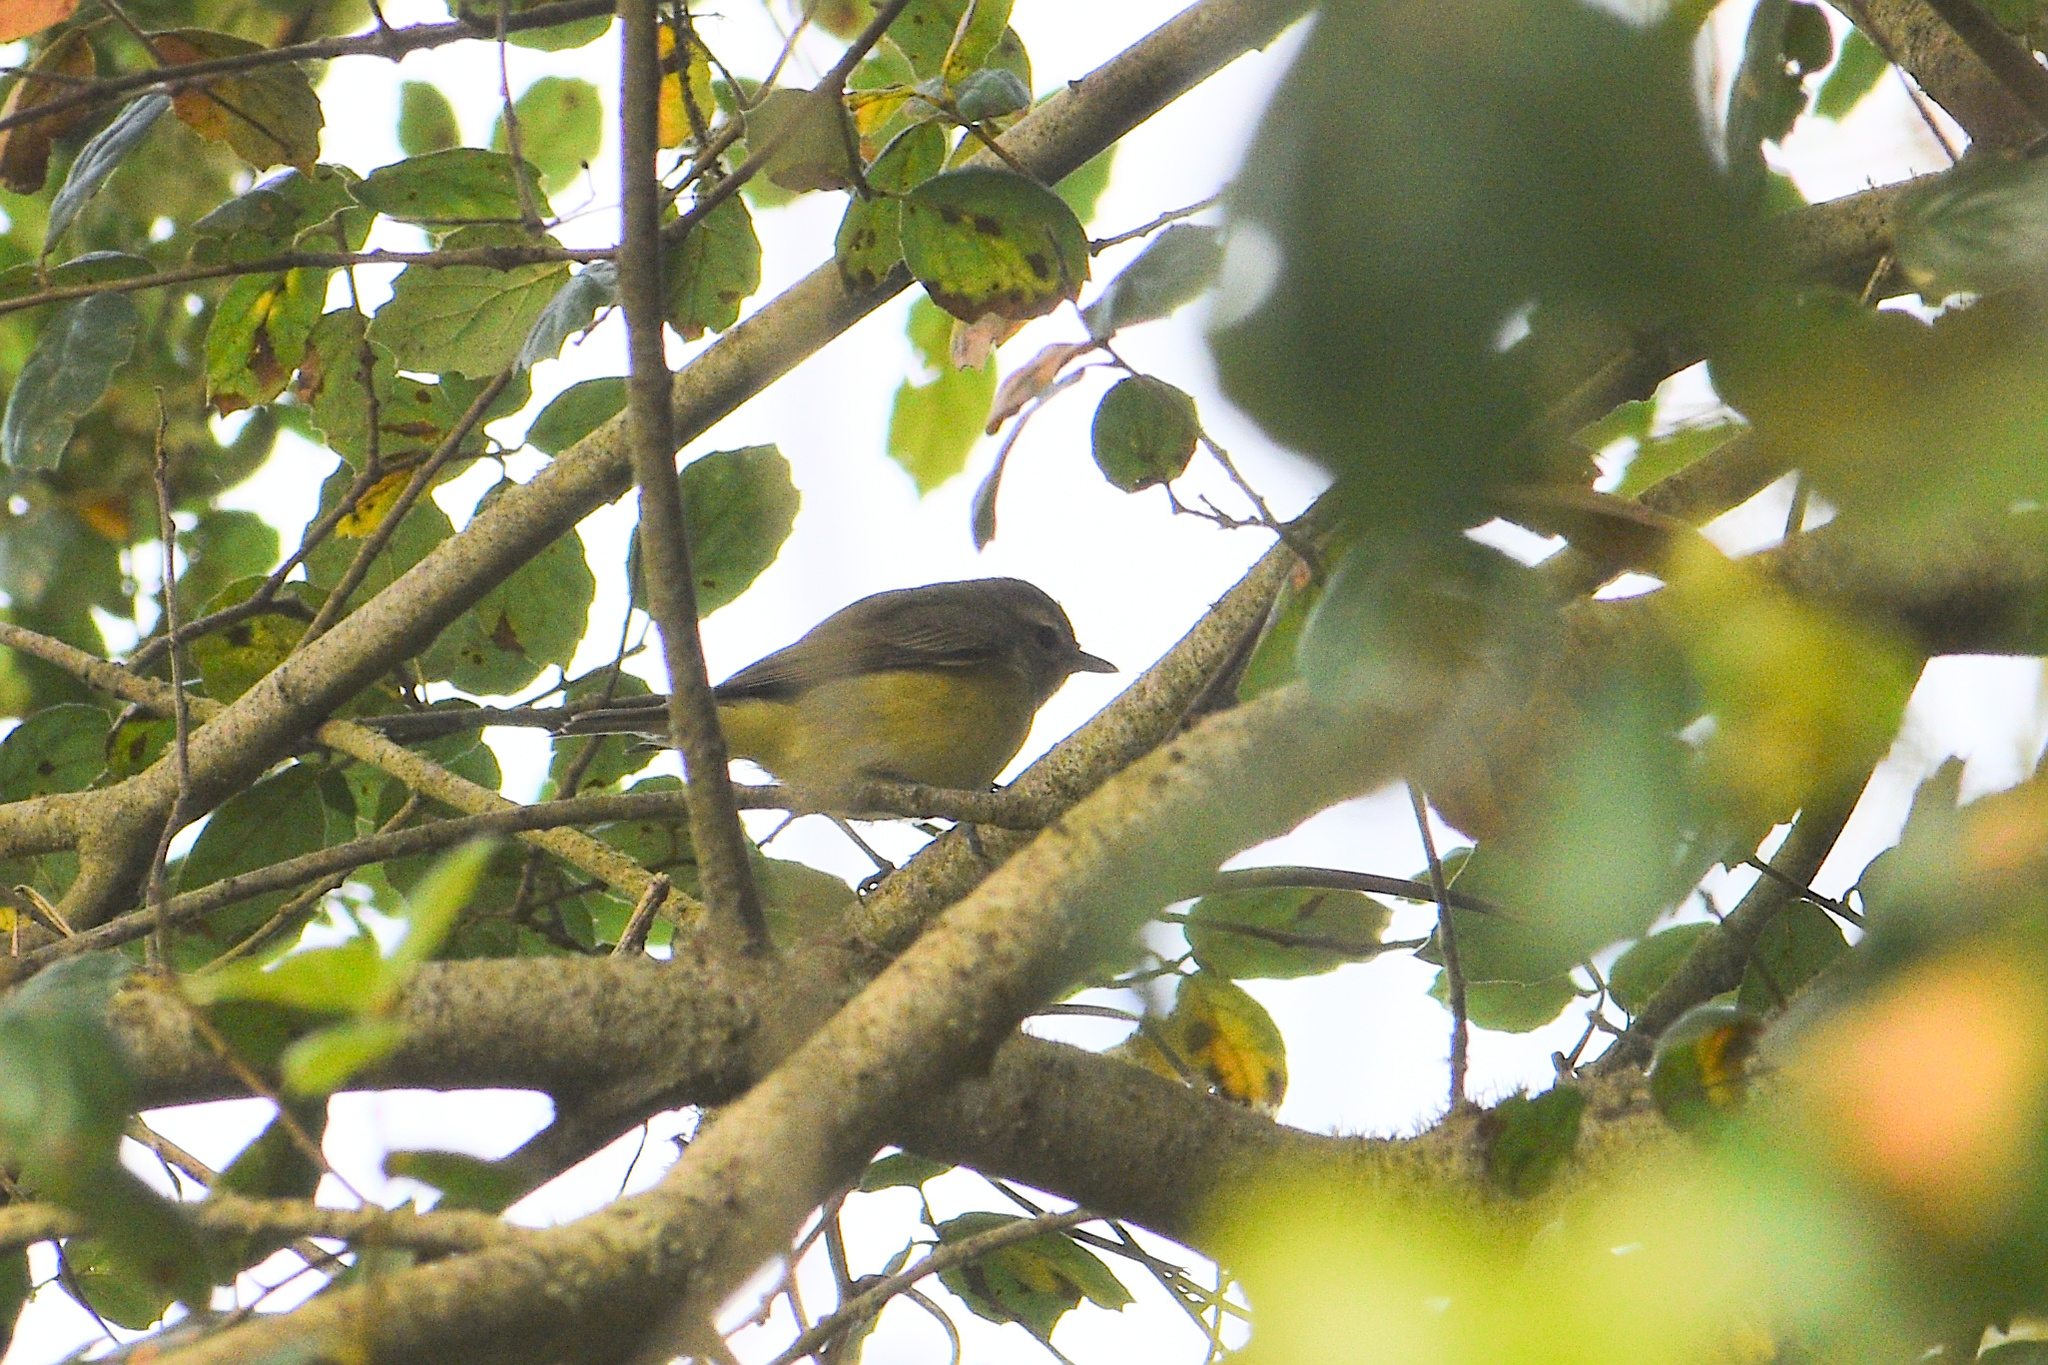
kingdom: Animalia
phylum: Chordata
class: Aves
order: Passeriformes
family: Vireonidae
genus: Vireo
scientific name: Vireo gilvus
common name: Warbling vireo
